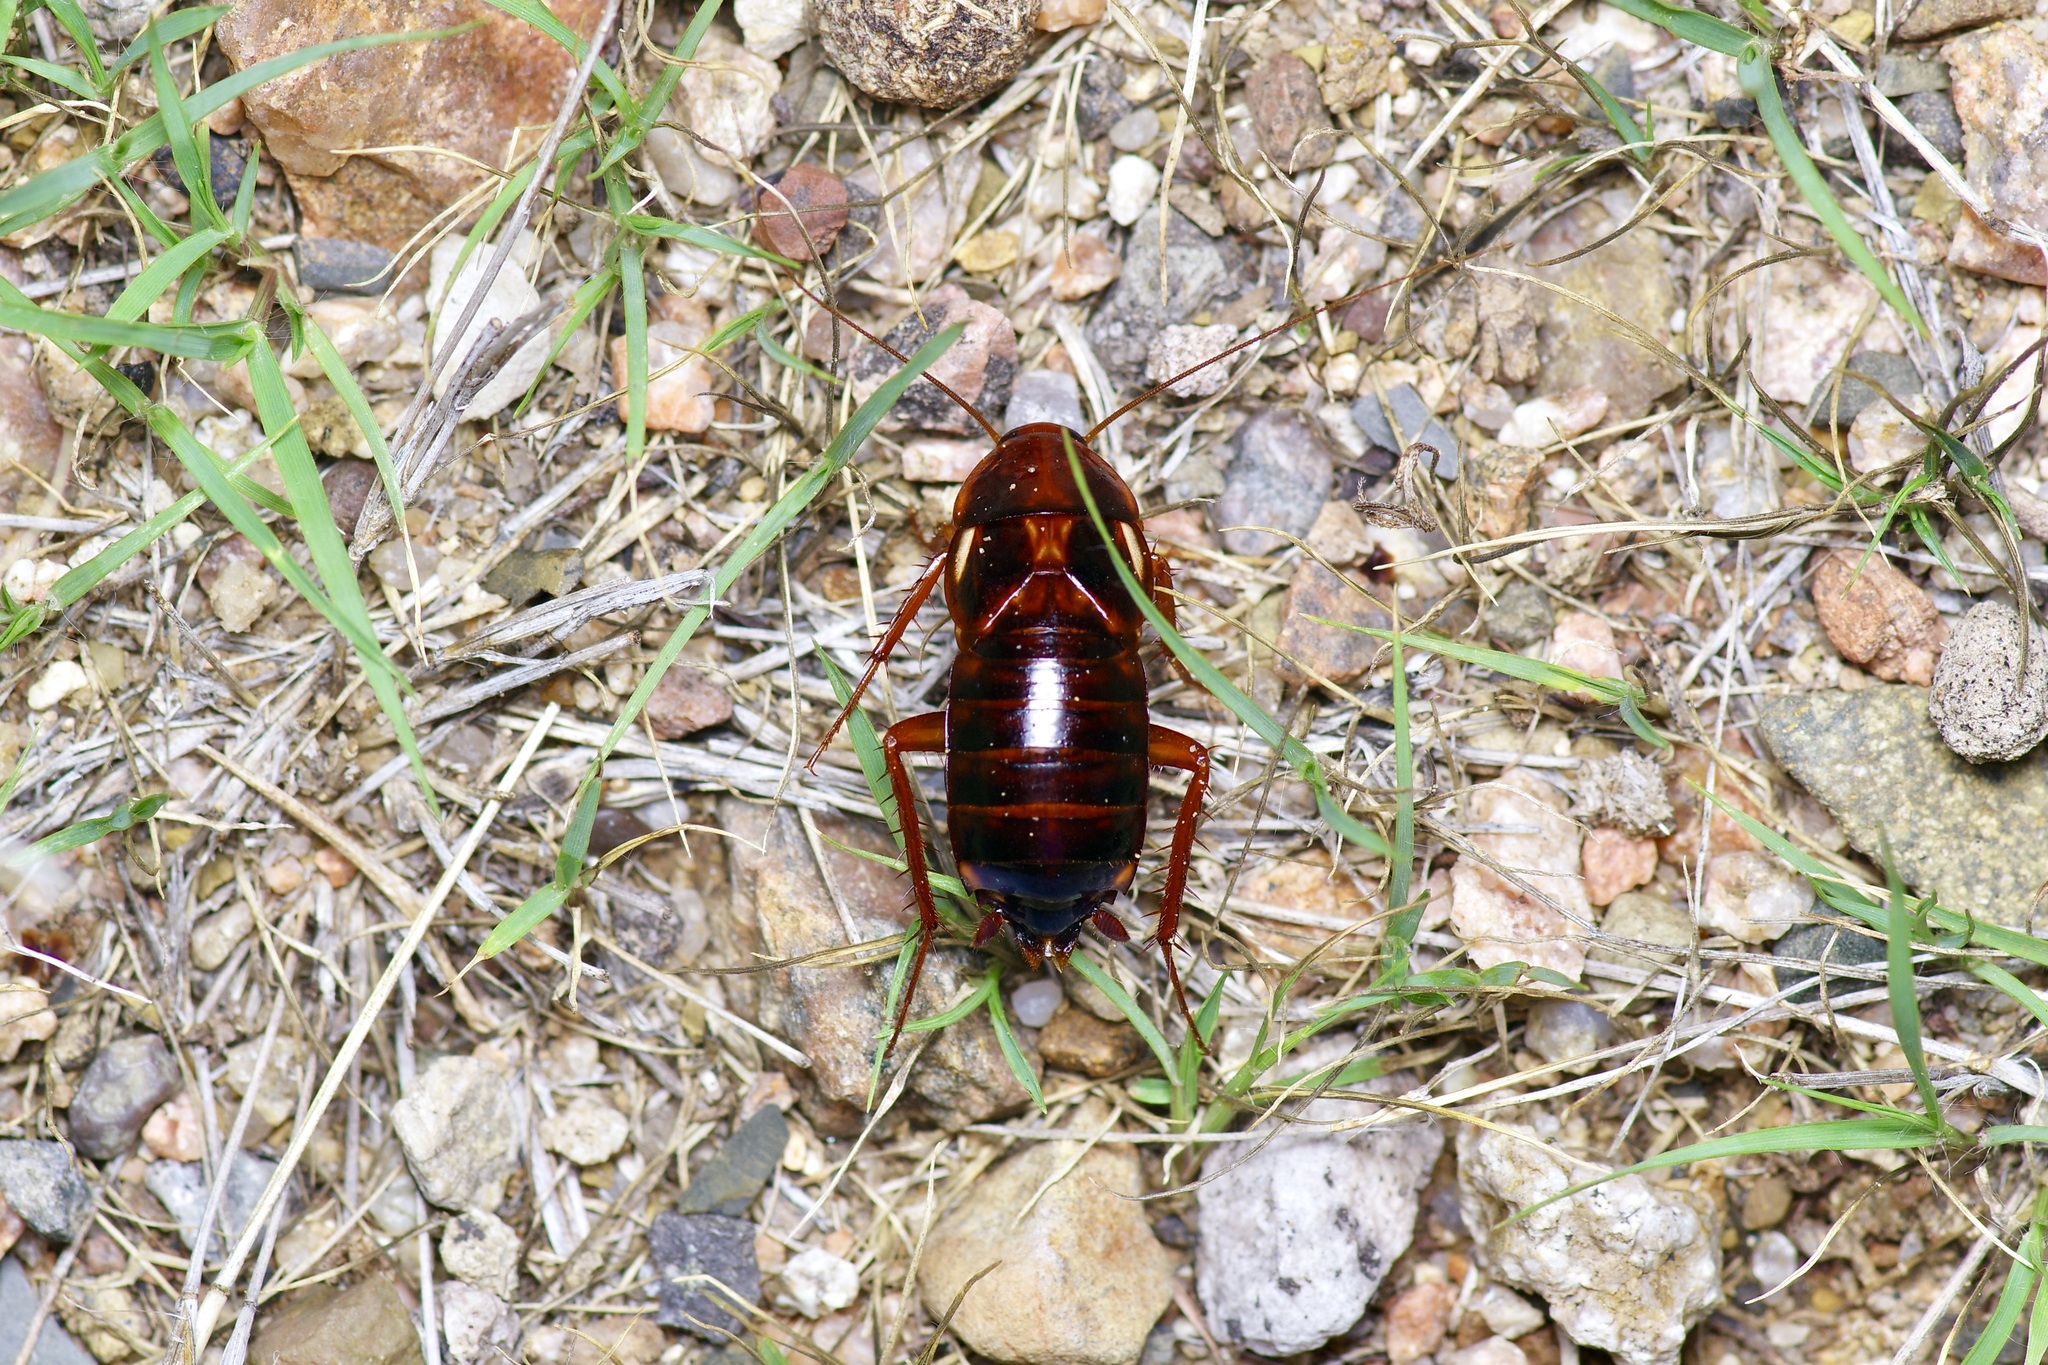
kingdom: Animalia
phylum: Arthropoda
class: Insecta
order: Blattodea
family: Blattidae
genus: Periplaneta
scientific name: Periplaneta lateralis
